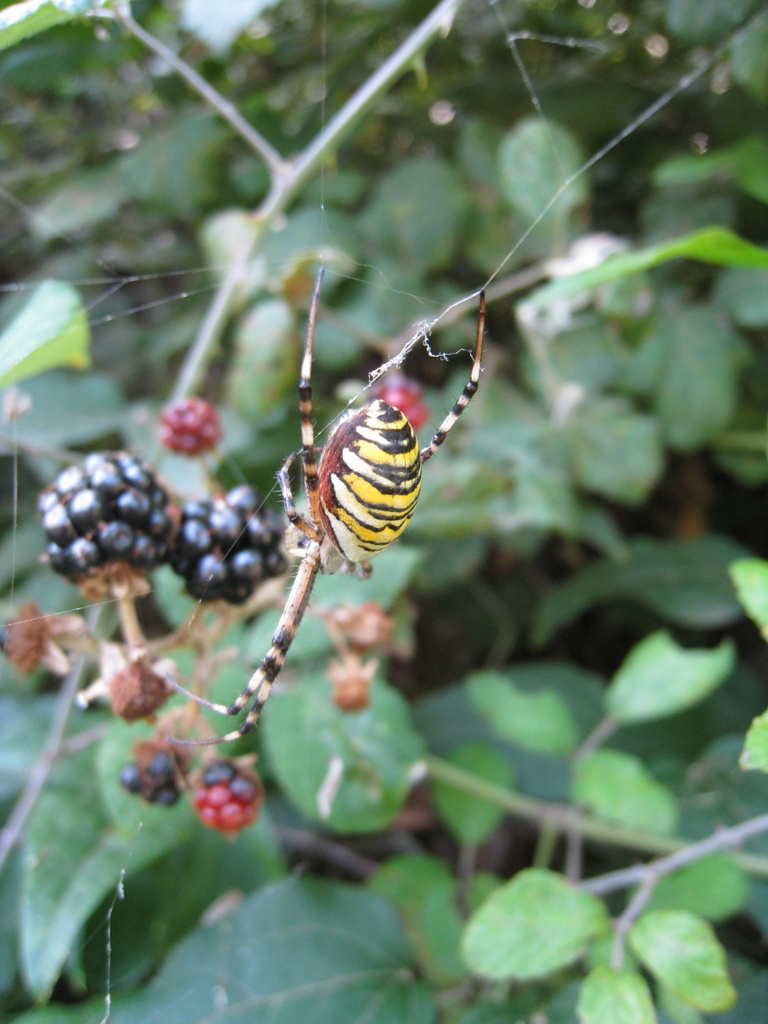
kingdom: Animalia
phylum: Arthropoda
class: Arachnida
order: Araneae
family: Araneidae
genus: Argiope
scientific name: Argiope bruennichi
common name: Wasp spider
